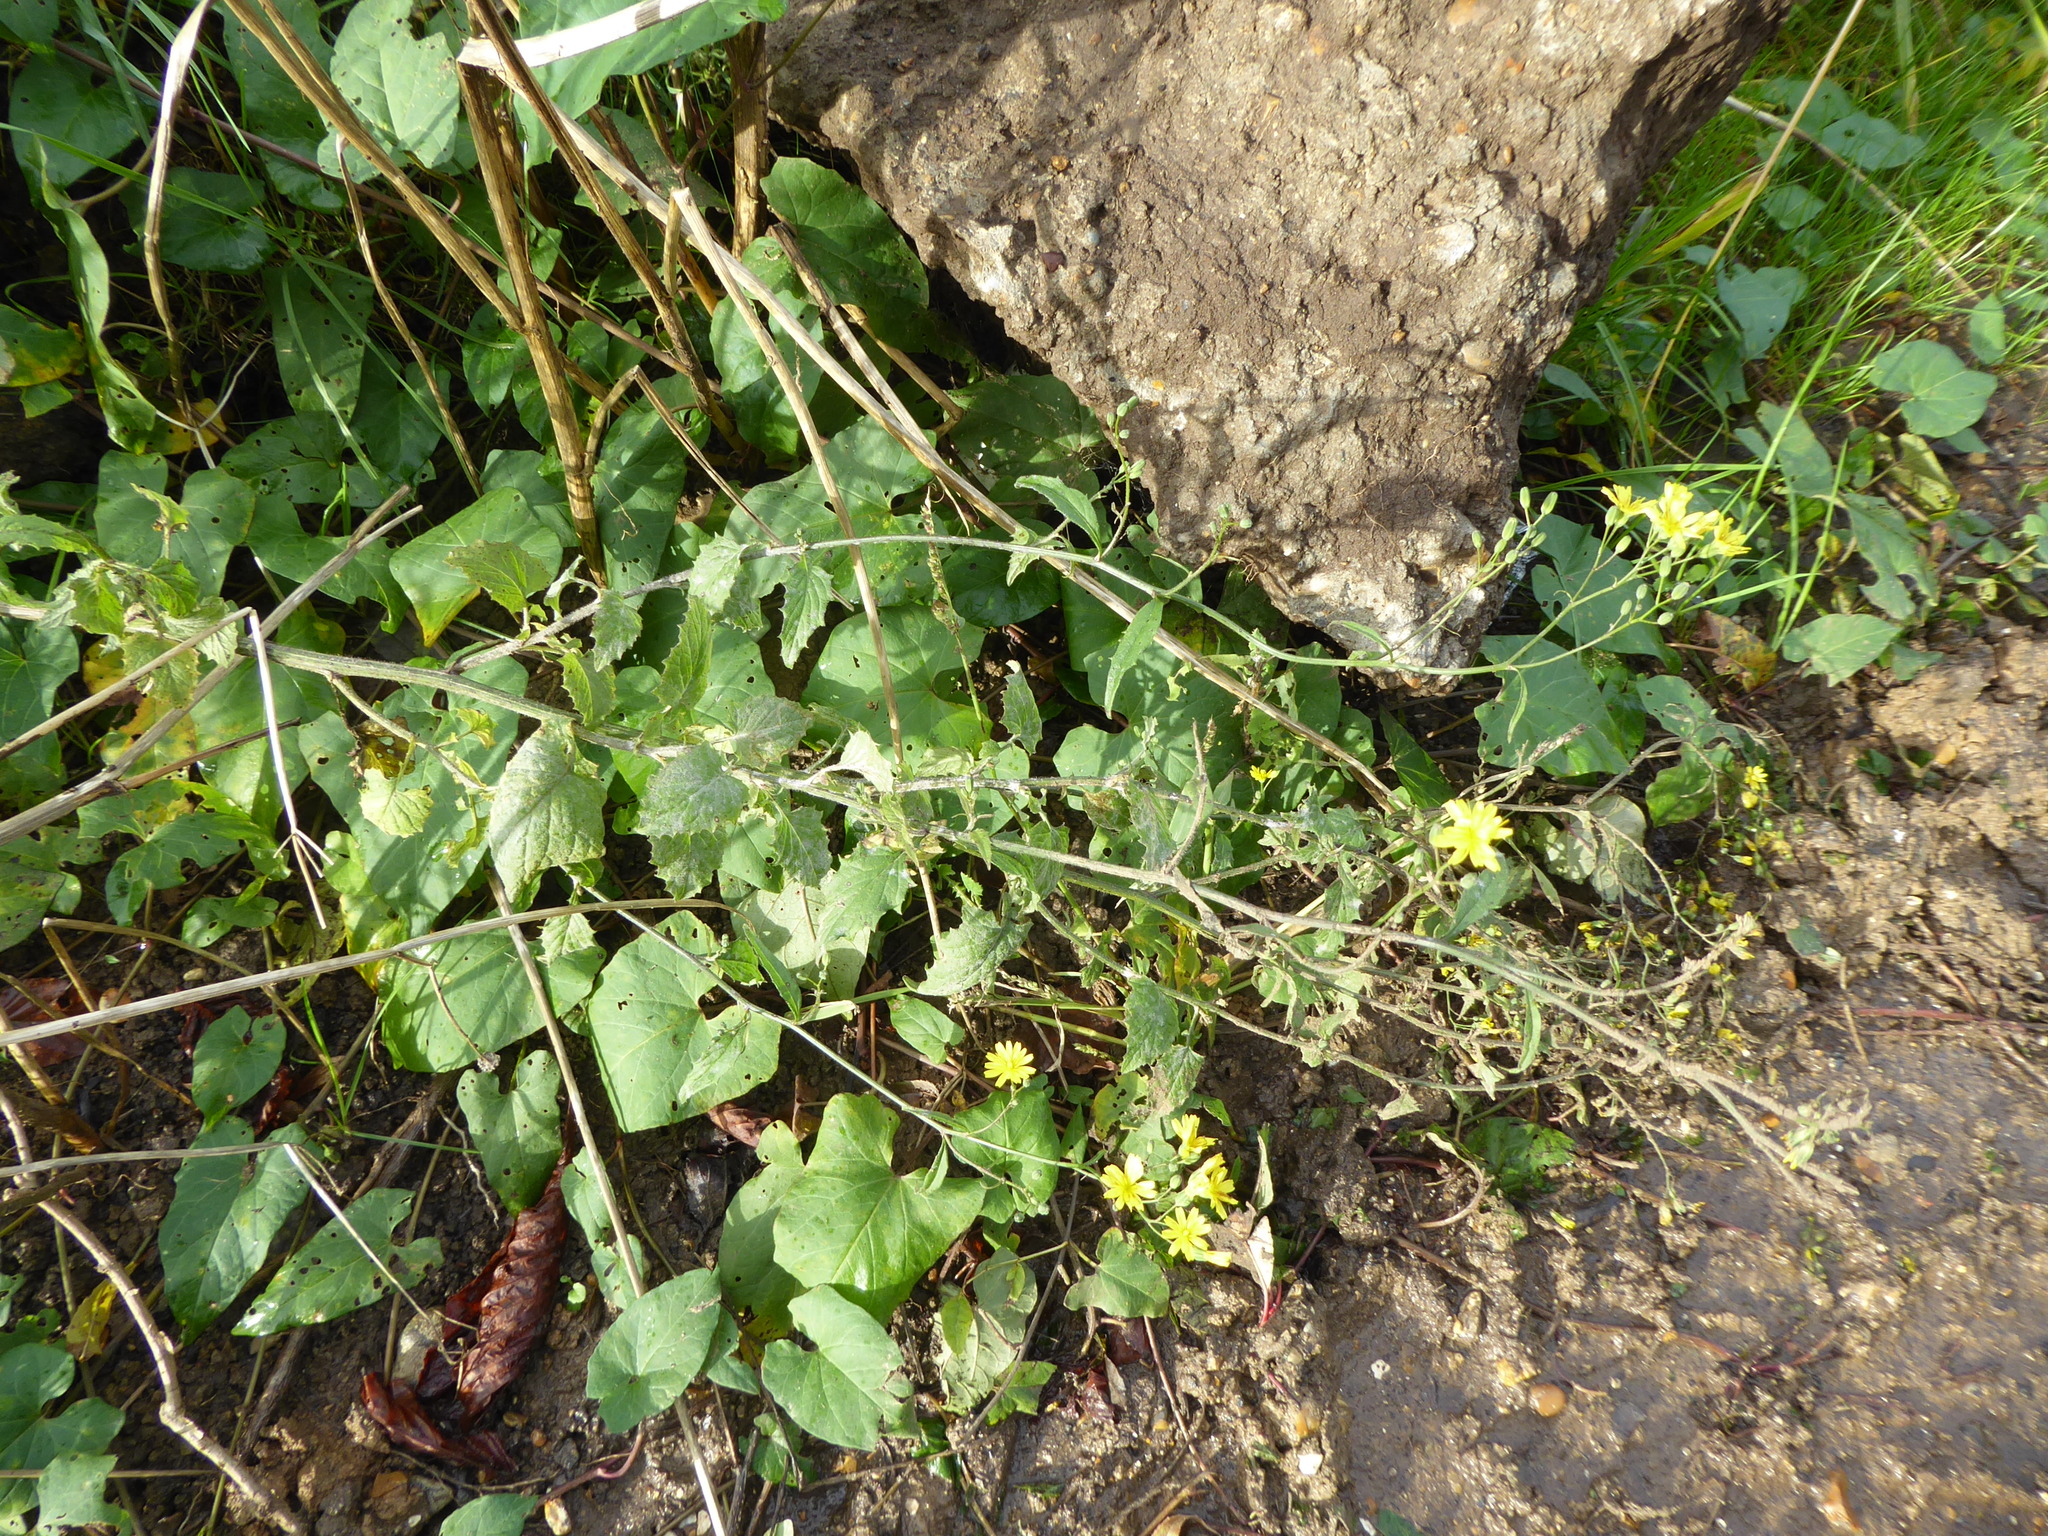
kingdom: Plantae
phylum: Tracheophyta
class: Magnoliopsida
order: Asterales
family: Asteraceae
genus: Lapsana
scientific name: Lapsana communis
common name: Nipplewort
